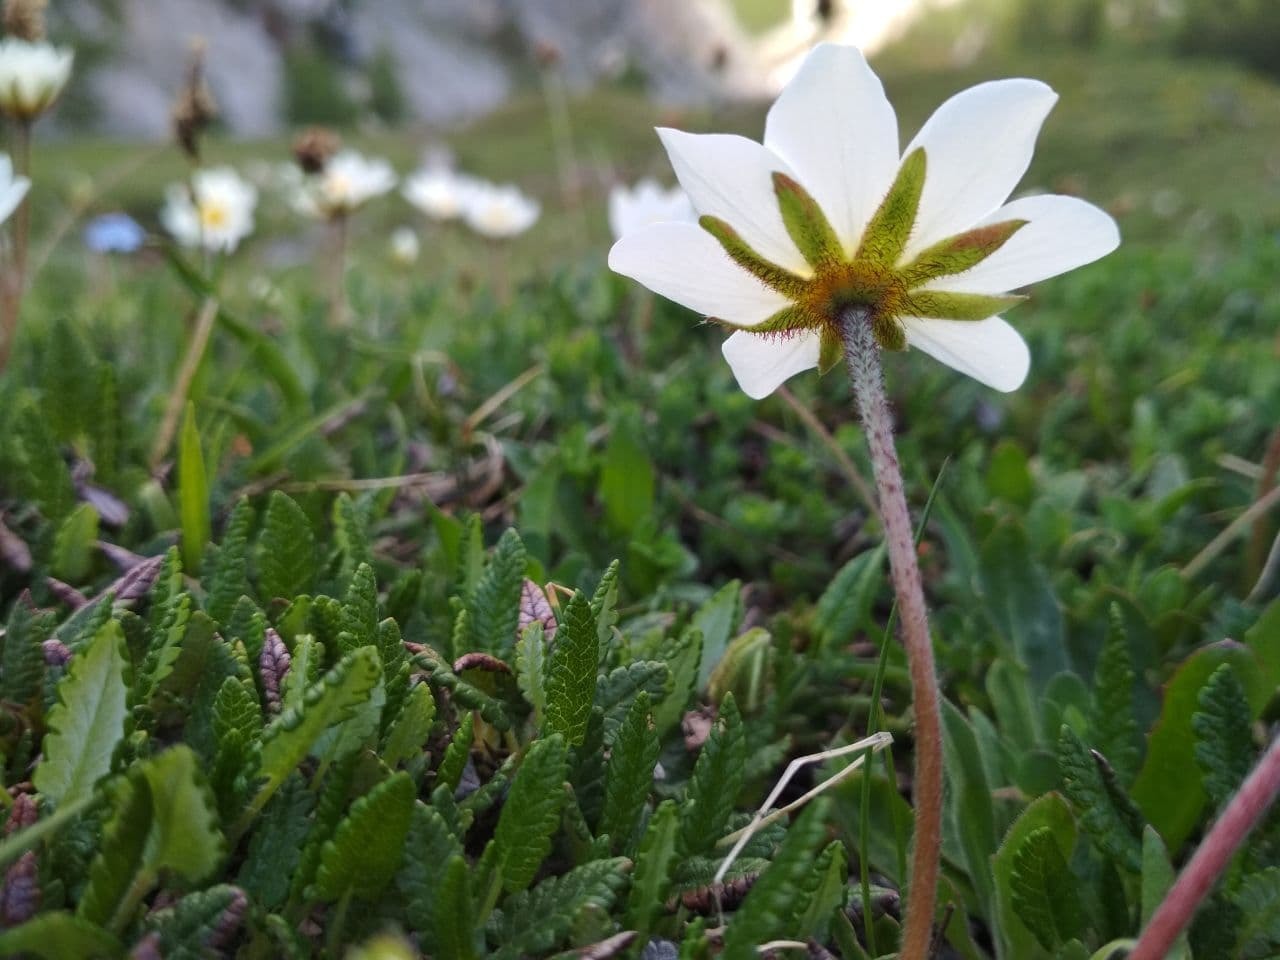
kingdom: Plantae
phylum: Tracheophyta
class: Magnoliopsida
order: Rosales
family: Rosaceae
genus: Dryas
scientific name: Dryas octopetala
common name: Eight-petal mountain-avens
